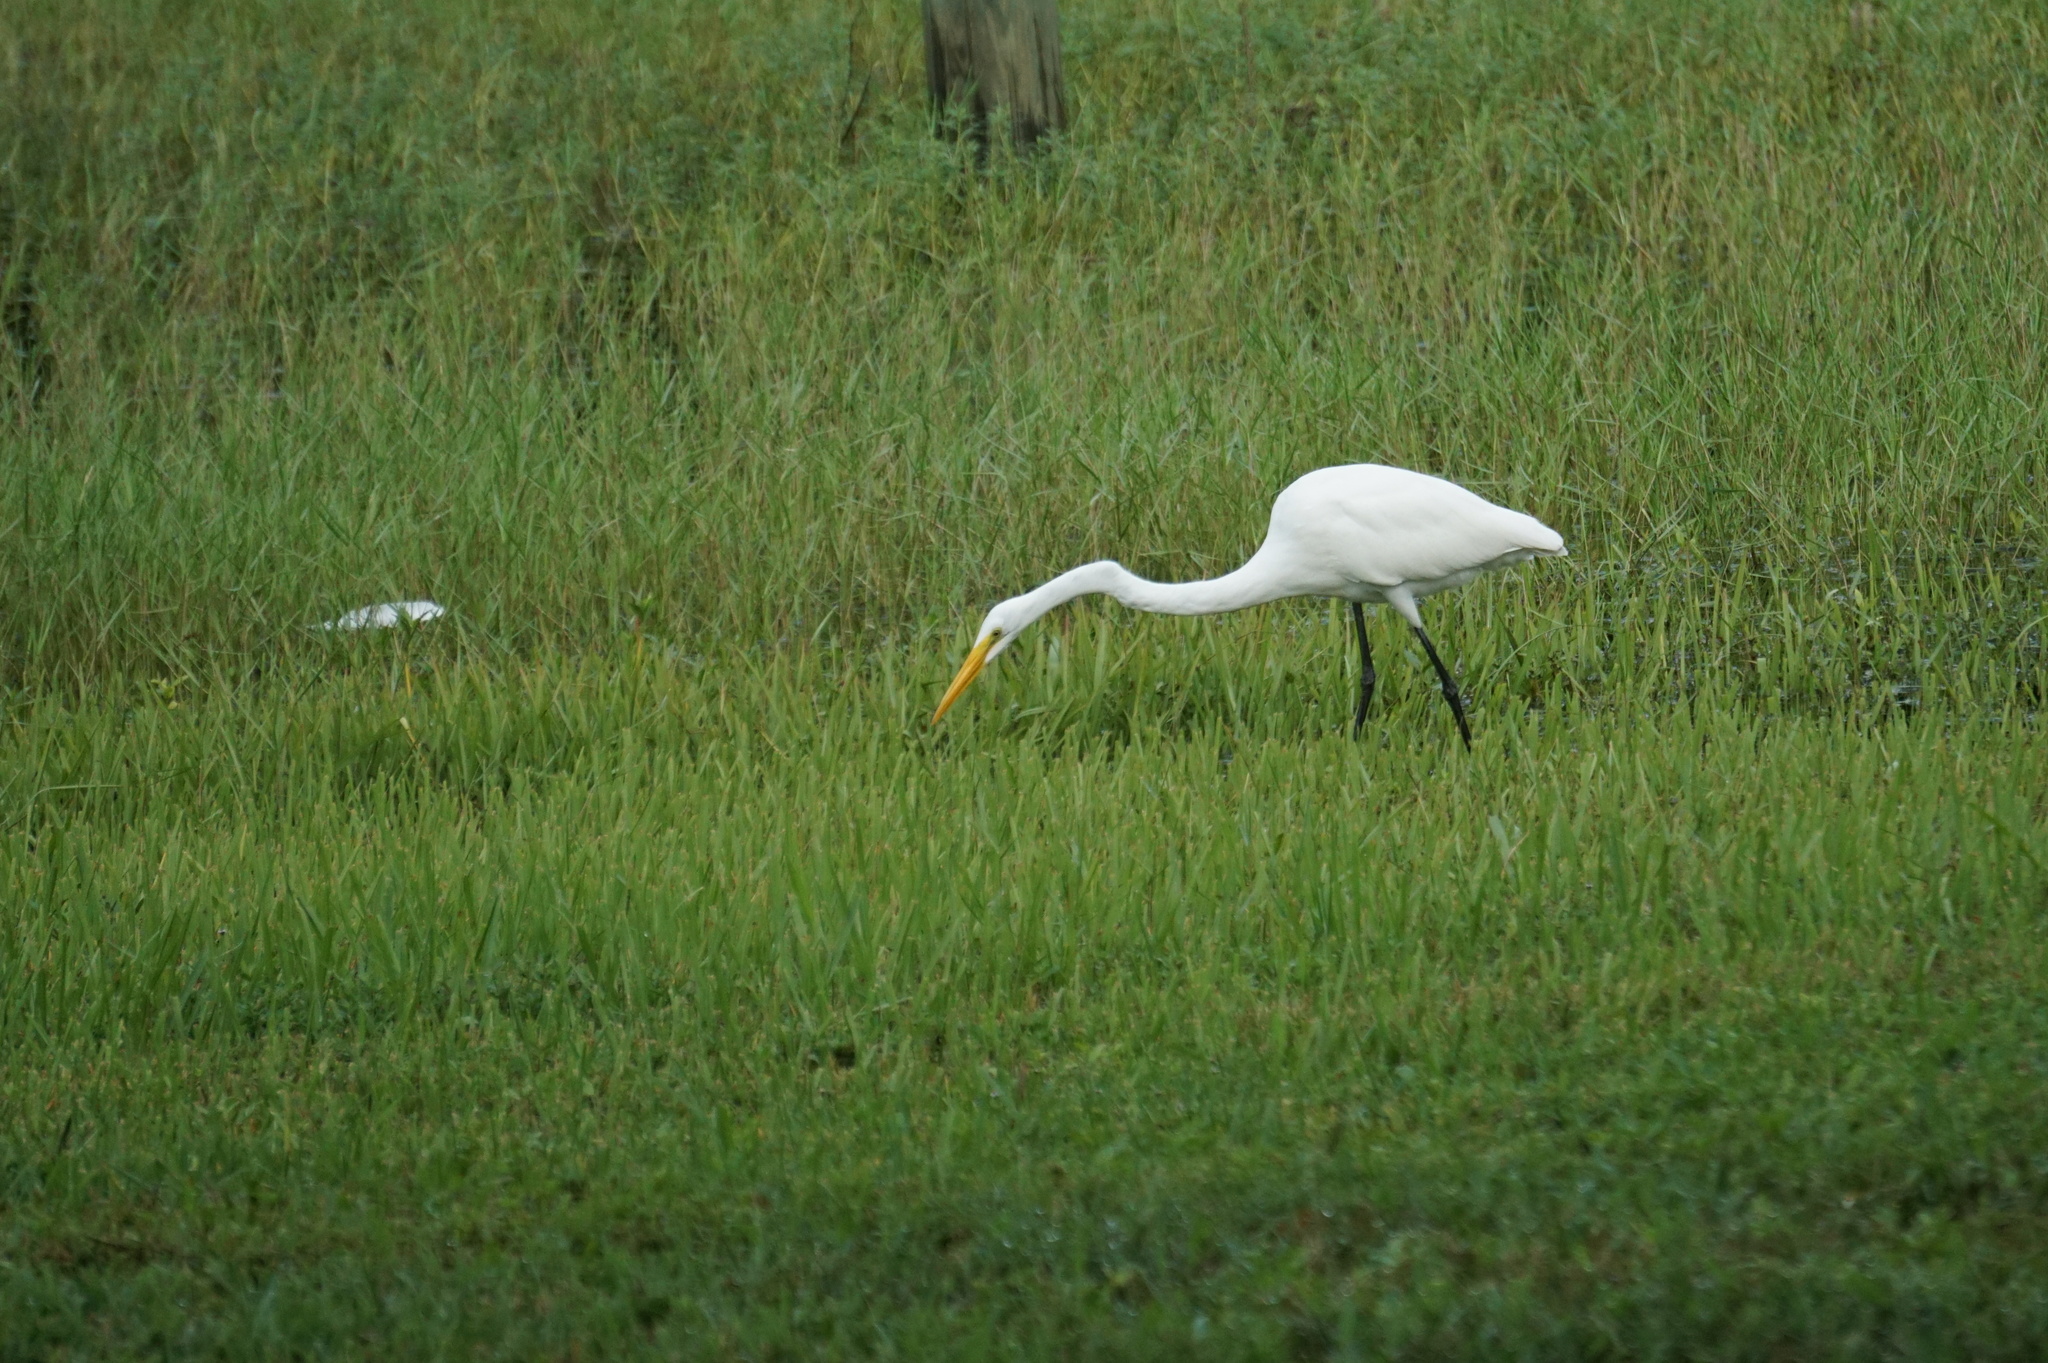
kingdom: Animalia
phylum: Chordata
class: Aves
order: Pelecaniformes
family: Ardeidae
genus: Ardea
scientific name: Ardea alba
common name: Great egret
